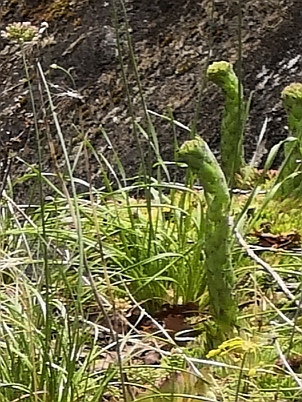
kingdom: Plantae
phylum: Tracheophyta
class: Magnoliopsida
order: Saxifragales
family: Crassulaceae
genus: Sempervivum
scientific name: Sempervivum globiferum
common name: Rolling hen-and-chicks
